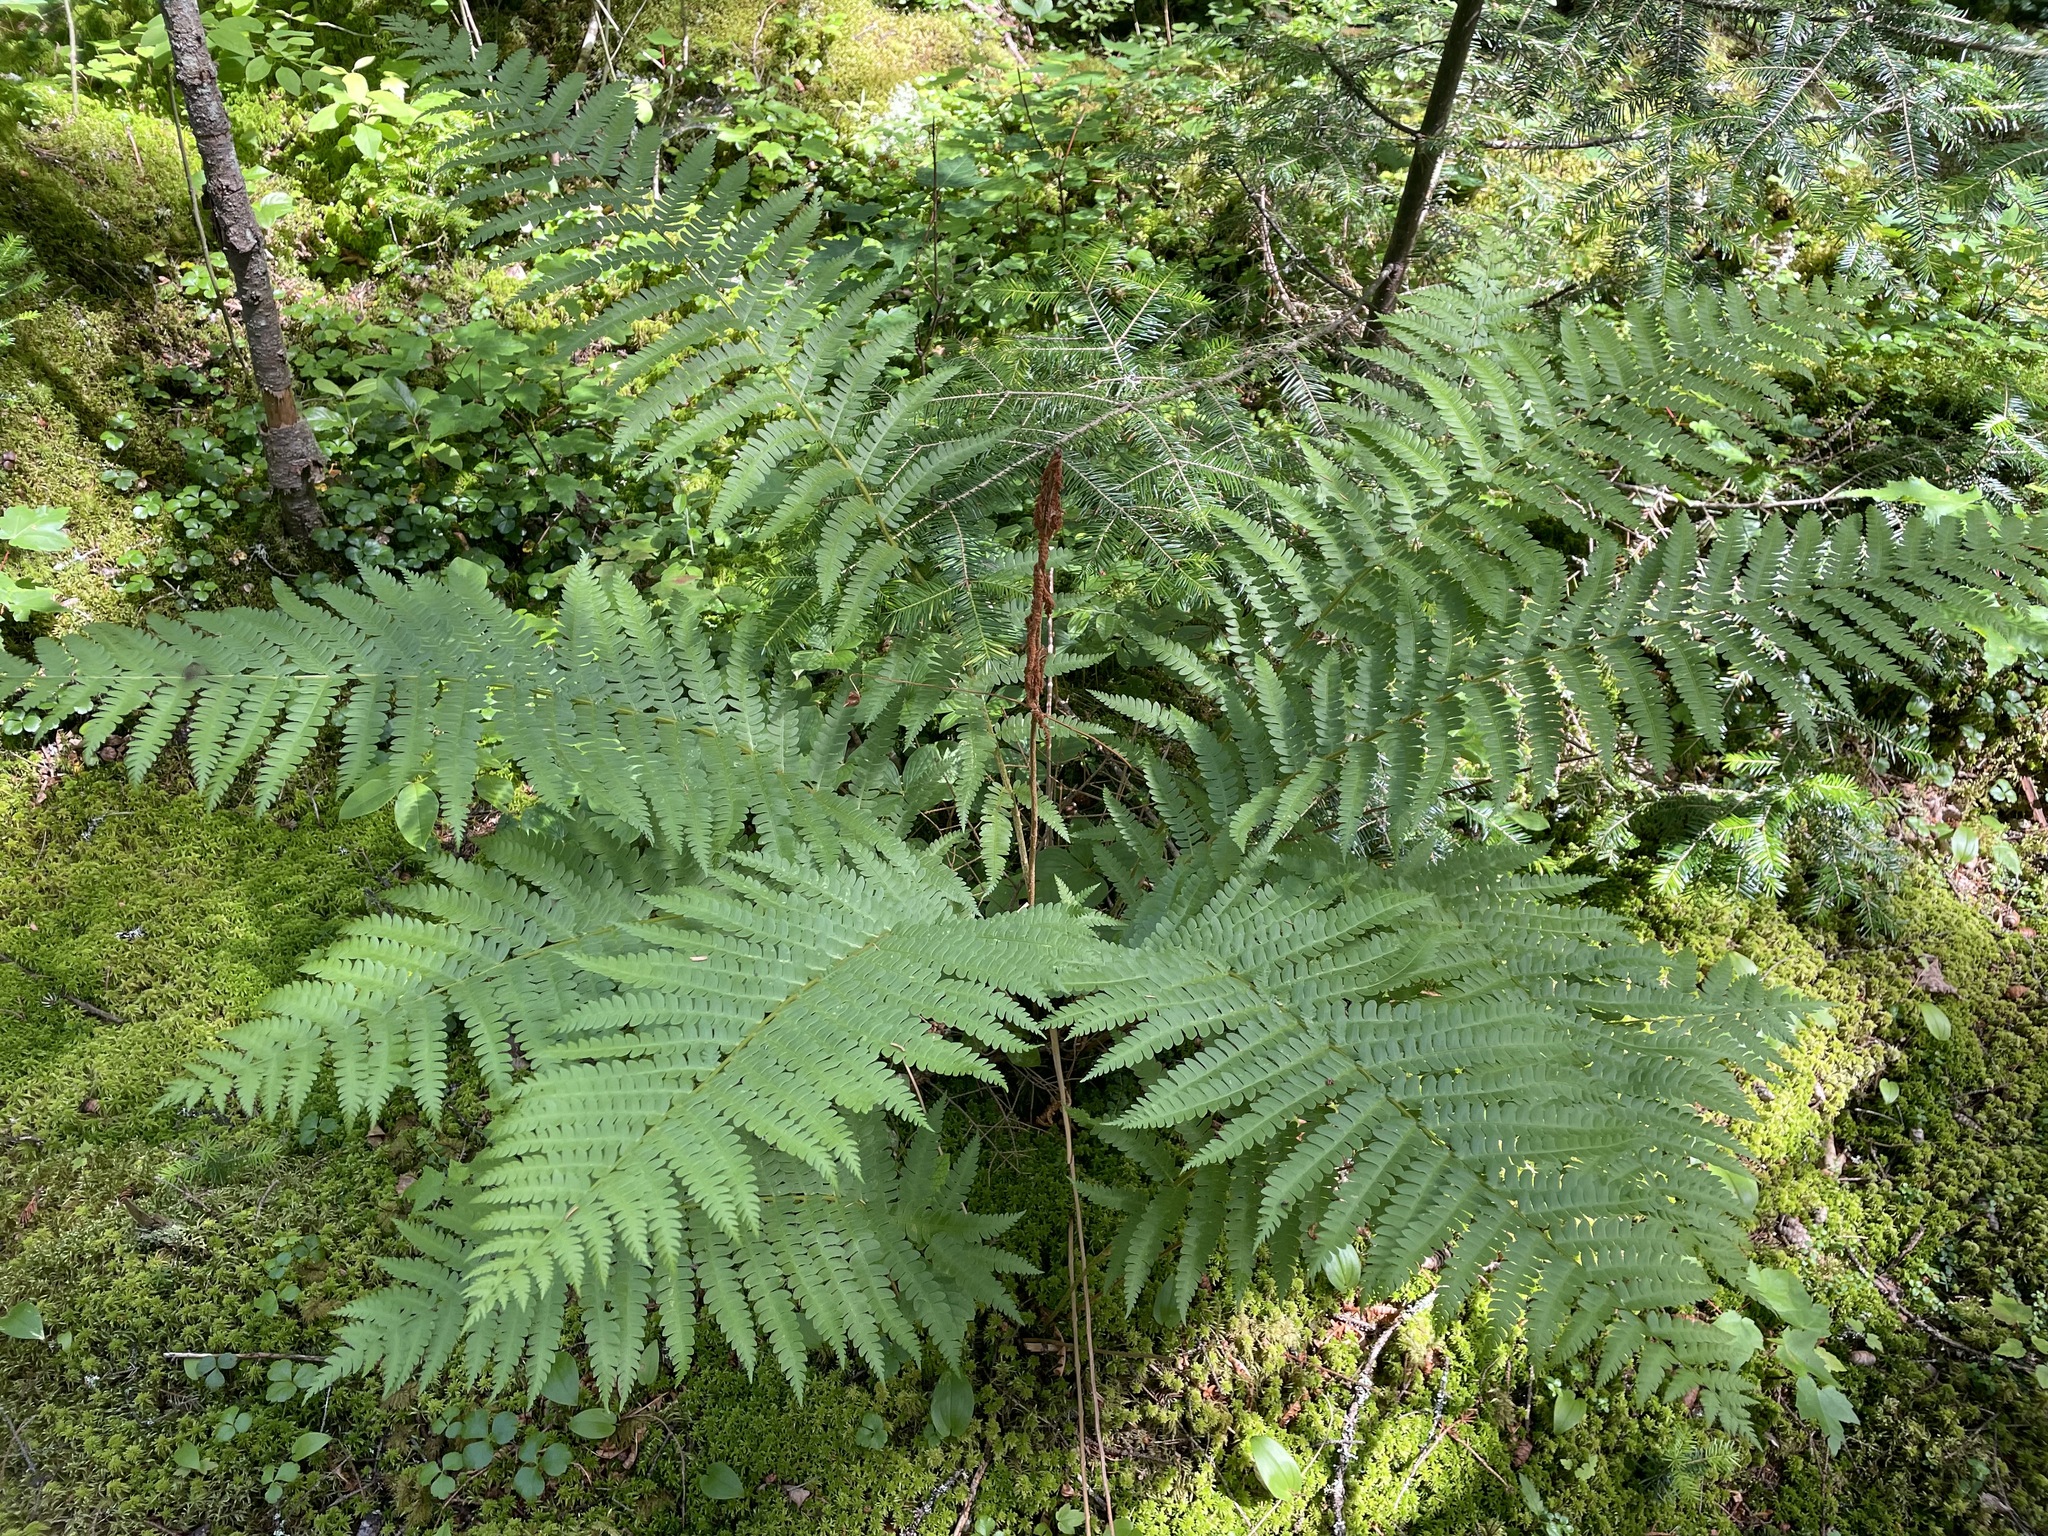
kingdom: Plantae
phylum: Tracheophyta
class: Polypodiopsida
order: Osmundales
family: Osmundaceae
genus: Osmundastrum
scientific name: Osmundastrum cinnamomeum
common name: Cinnamon fern
